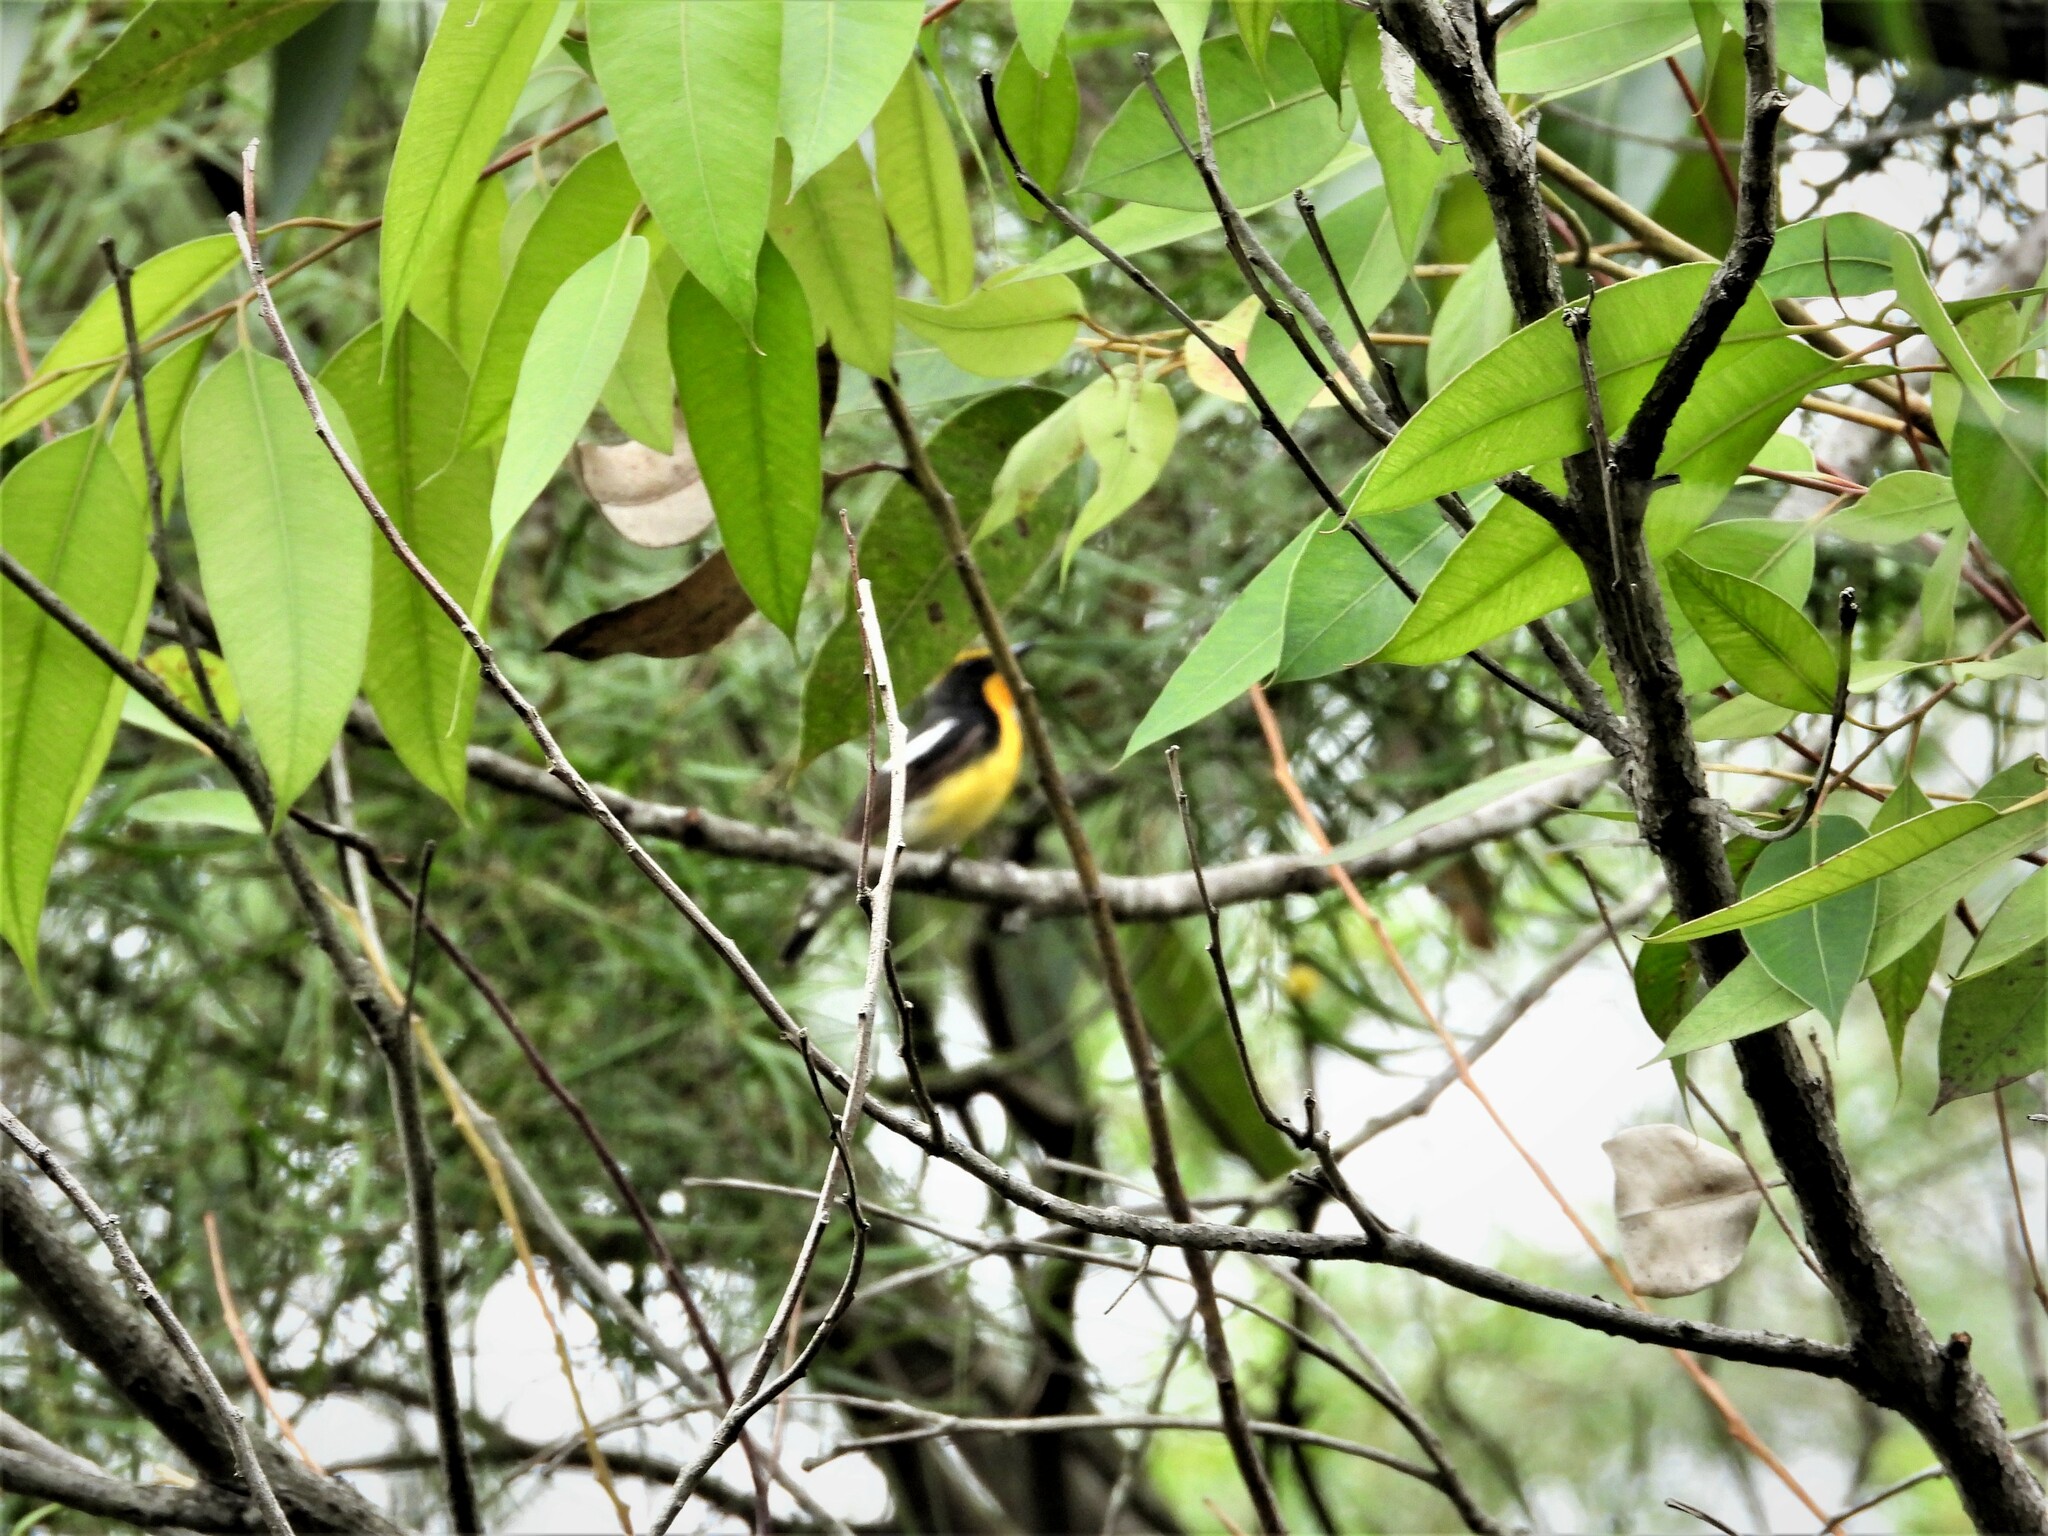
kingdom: Animalia
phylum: Chordata
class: Aves
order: Passeriformes
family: Muscicapidae
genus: Ficedula
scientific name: Ficedula narcissina
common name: Narcissus flycatcher
